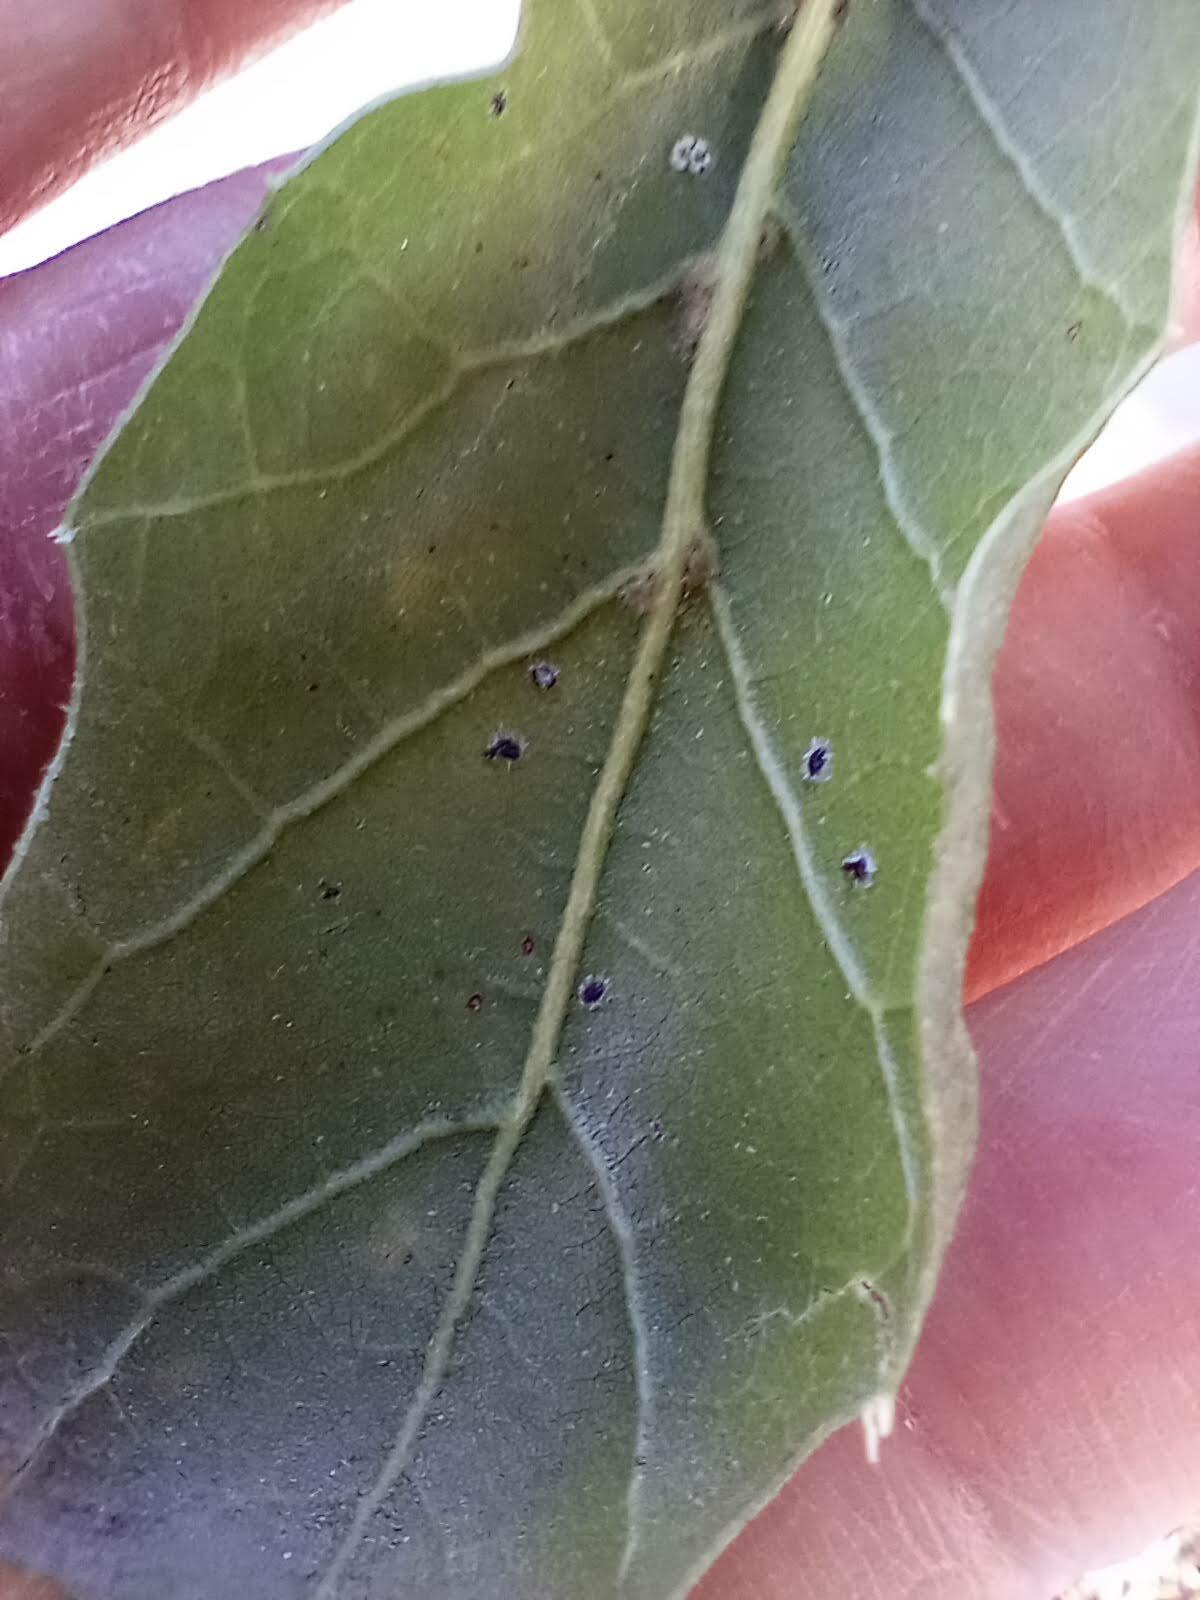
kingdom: Animalia
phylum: Arthropoda
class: Insecta
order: Hemiptera
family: Aleyrodidae
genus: Aleuroplatus
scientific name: Aleuroplatus coronata
